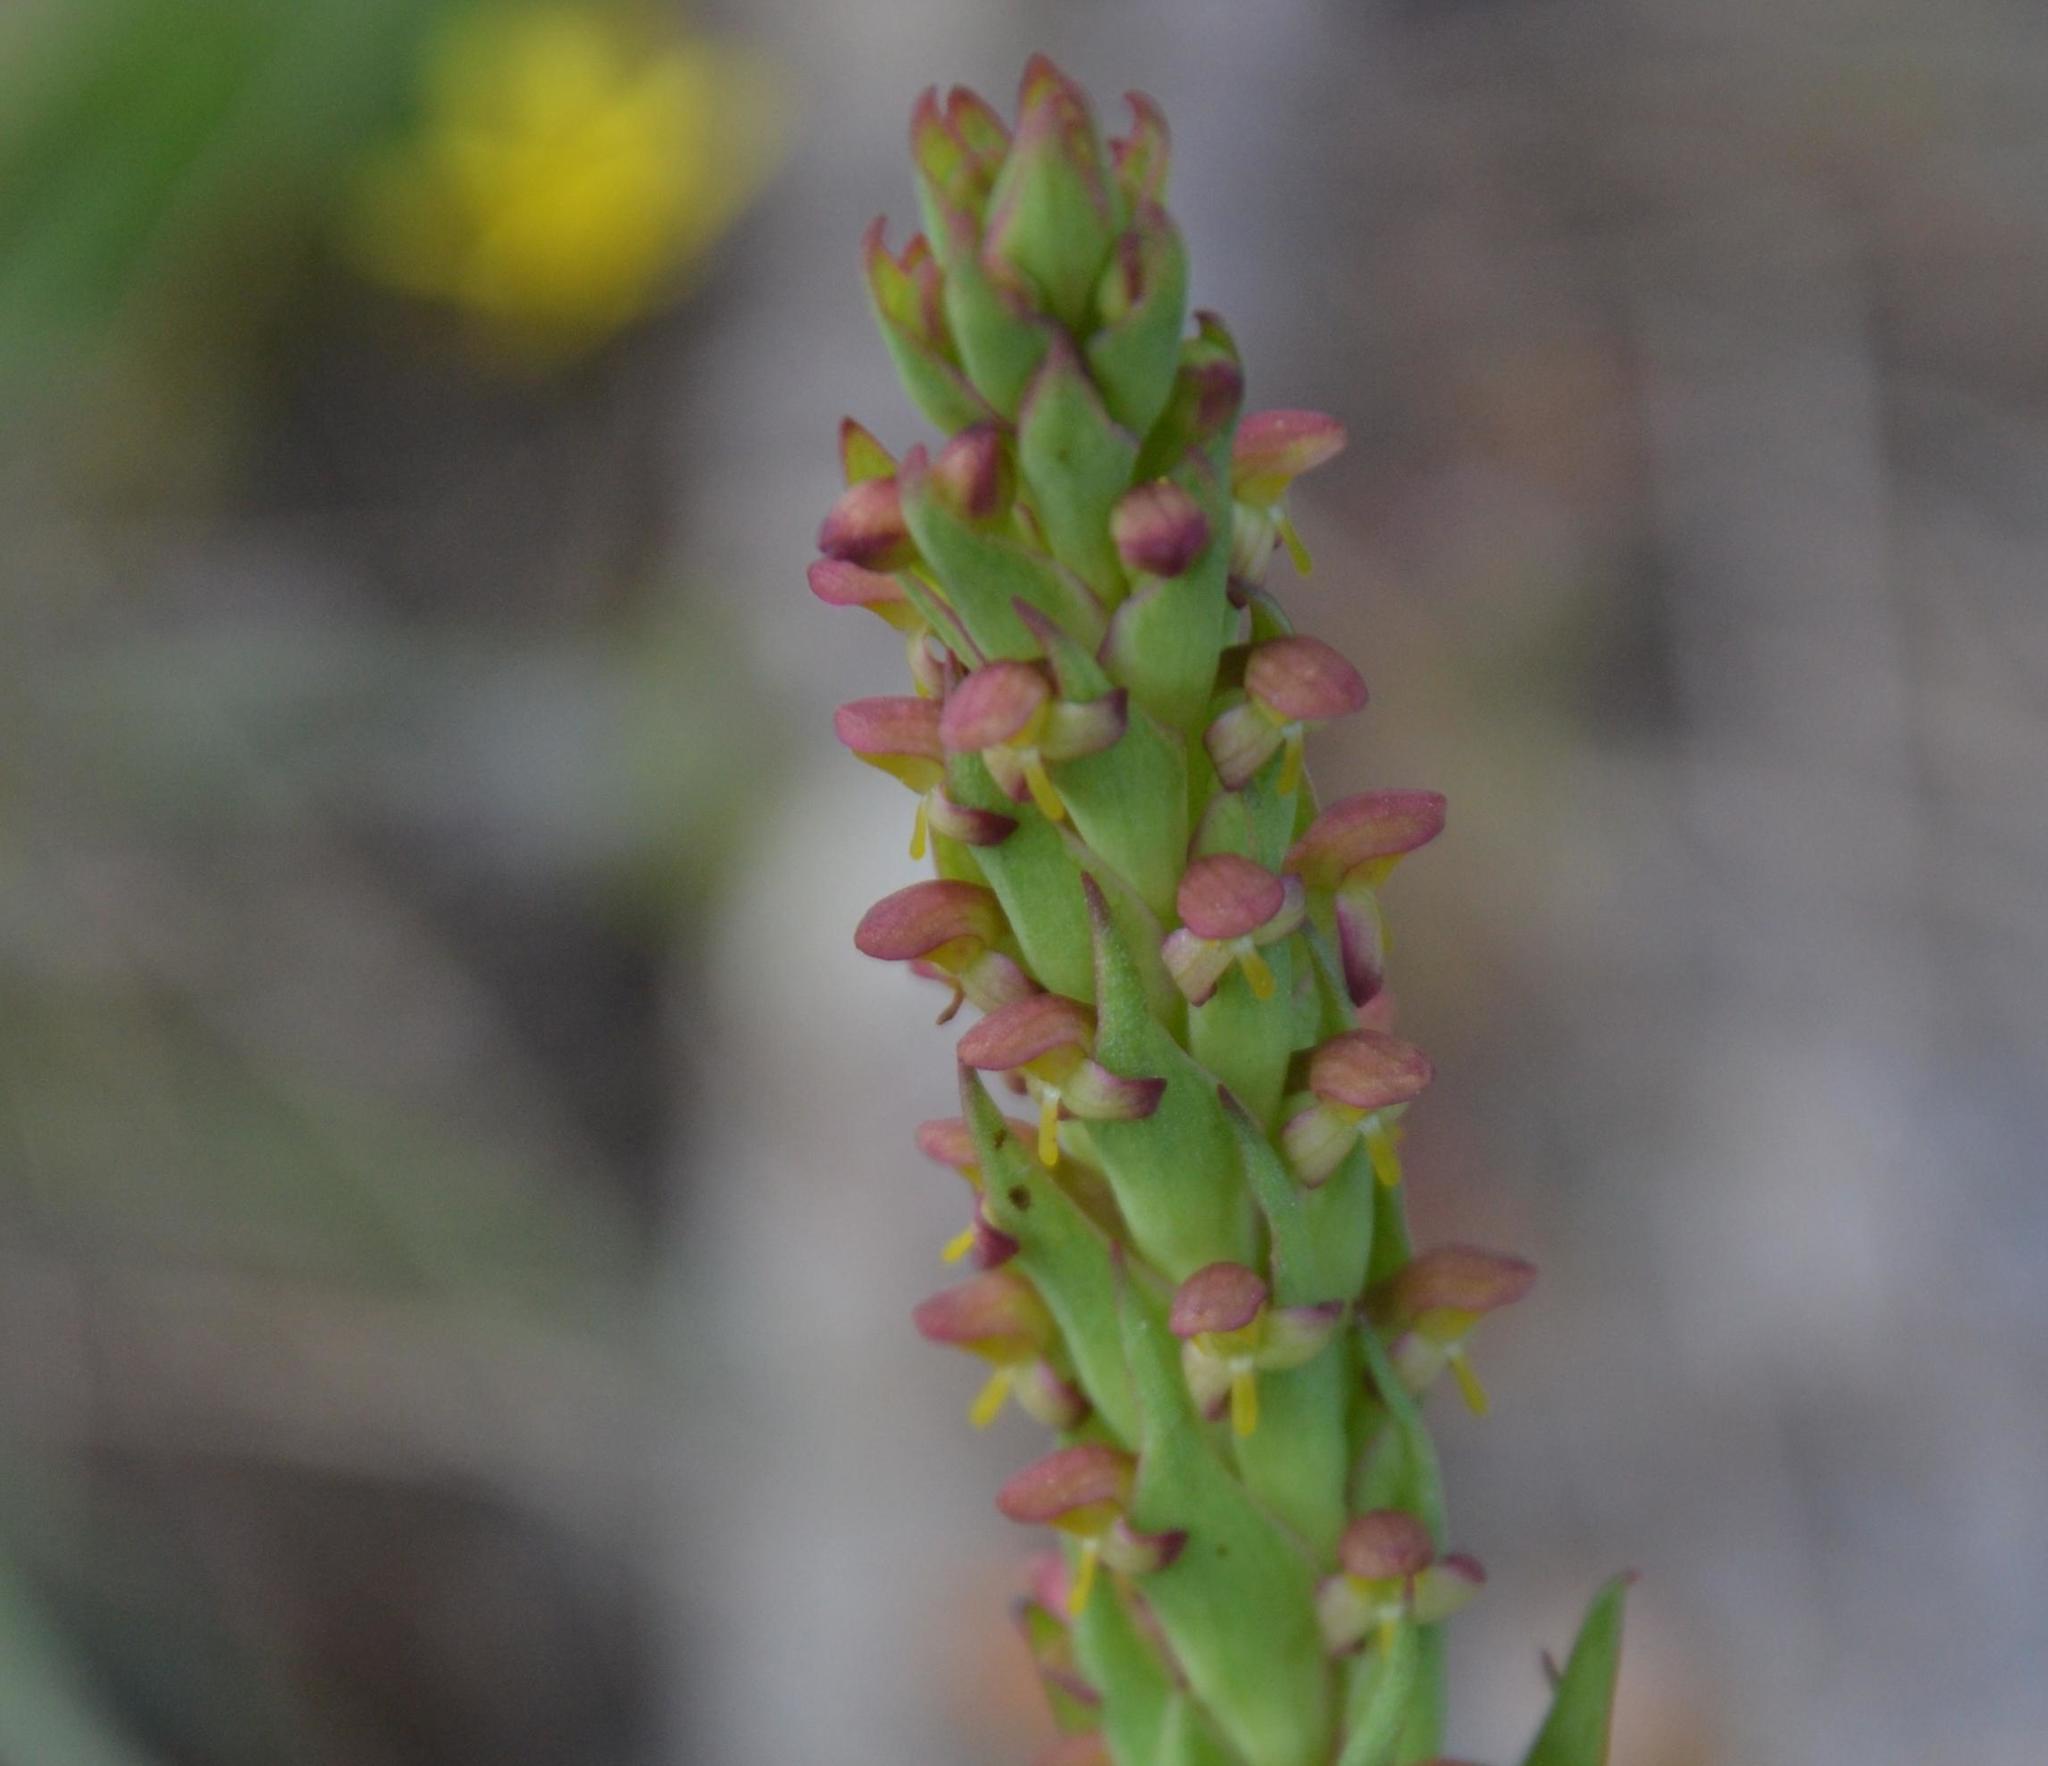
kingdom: Plantae
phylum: Tracheophyta
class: Liliopsida
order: Asparagales
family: Orchidaceae
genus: Disa
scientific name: Disa bracteata
